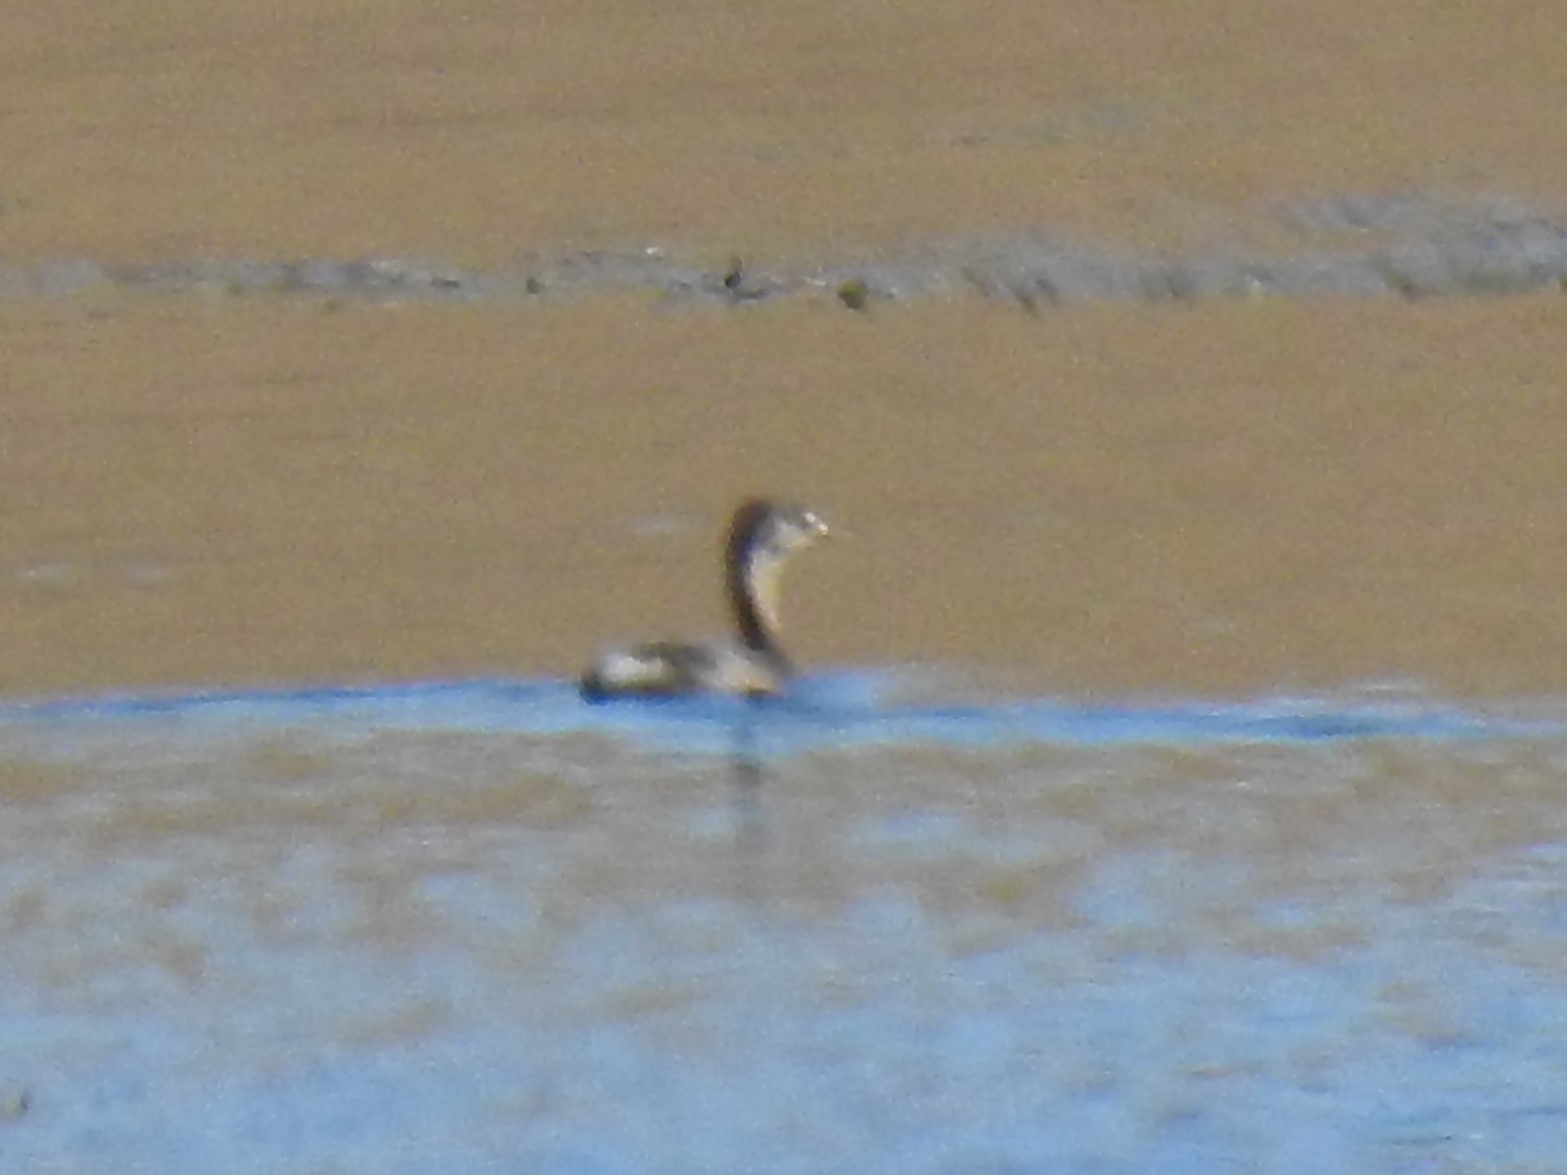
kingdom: Animalia
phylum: Chordata
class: Aves
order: Podicipediformes
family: Podicipedidae
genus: Podilymbus
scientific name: Podilymbus podiceps
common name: Pied-billed grebe
